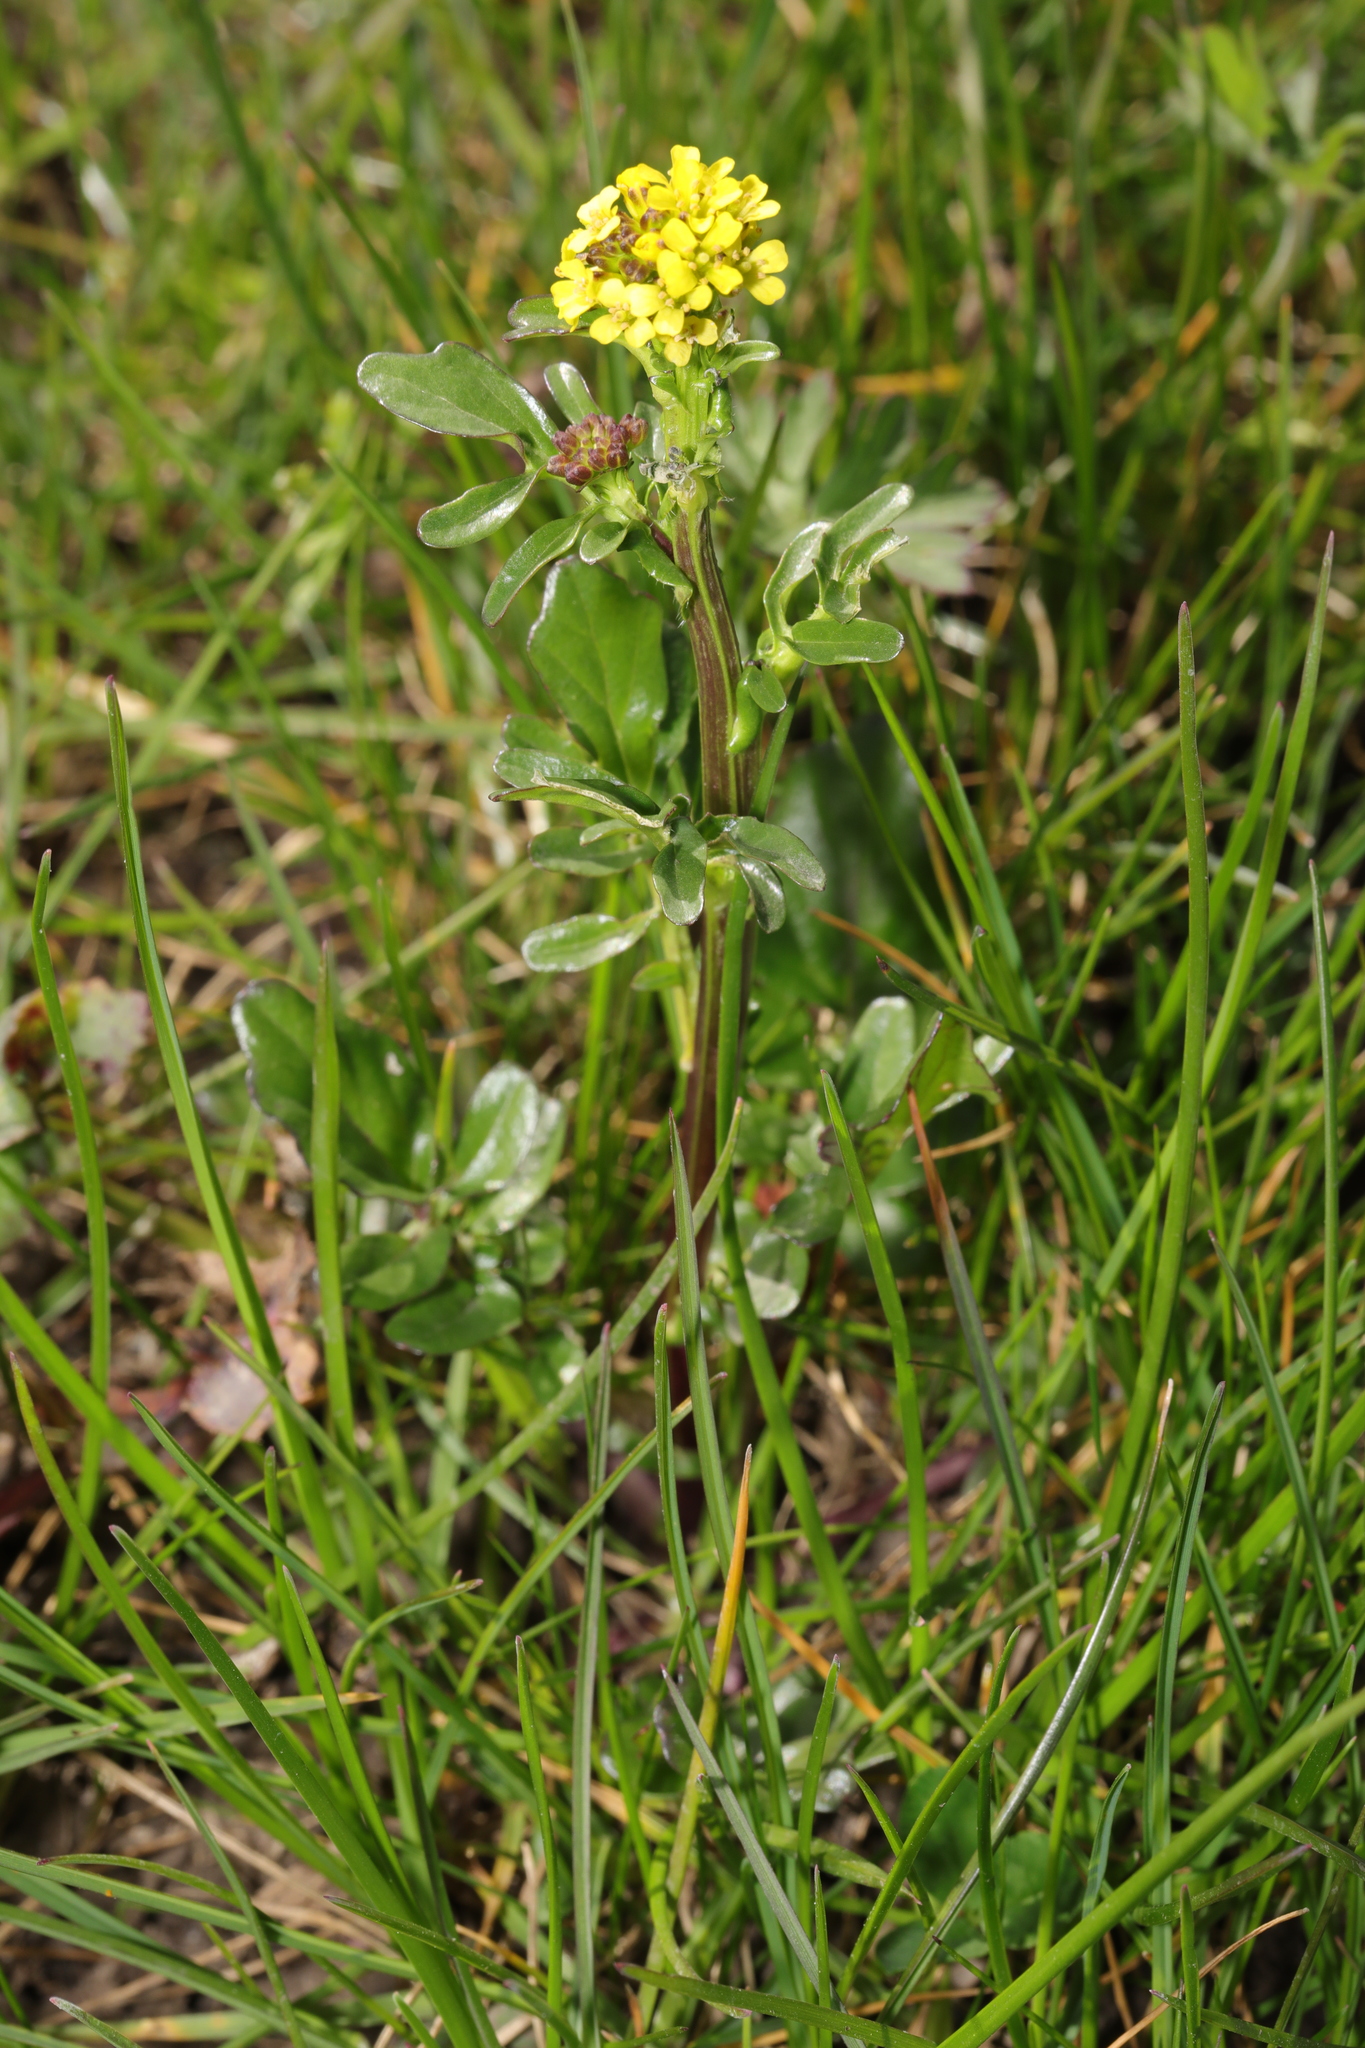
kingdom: Plantae
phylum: Tracheophyta
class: Magnoliopsida
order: Brassicales
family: Brassicaceae
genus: Barbarea
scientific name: Barbarea vulgaris
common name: Cressy-greens
